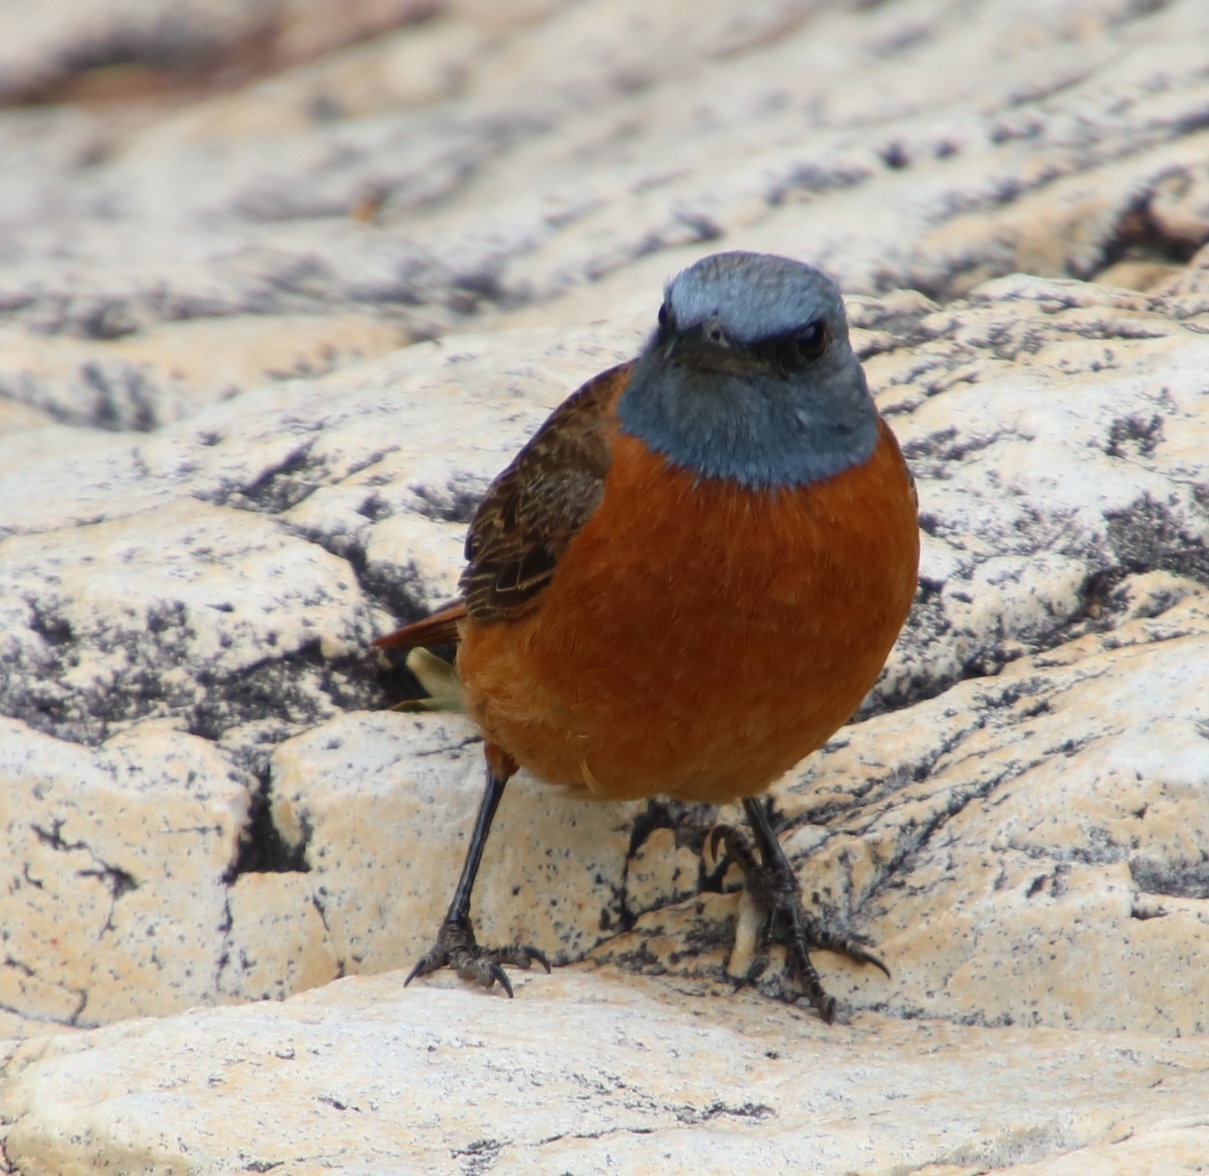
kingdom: Animalia
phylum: Chordata
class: Aves
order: Passeriformes
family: Muscicapidae
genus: Monticola
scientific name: Monticola rupestris
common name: Cape rock thrush
